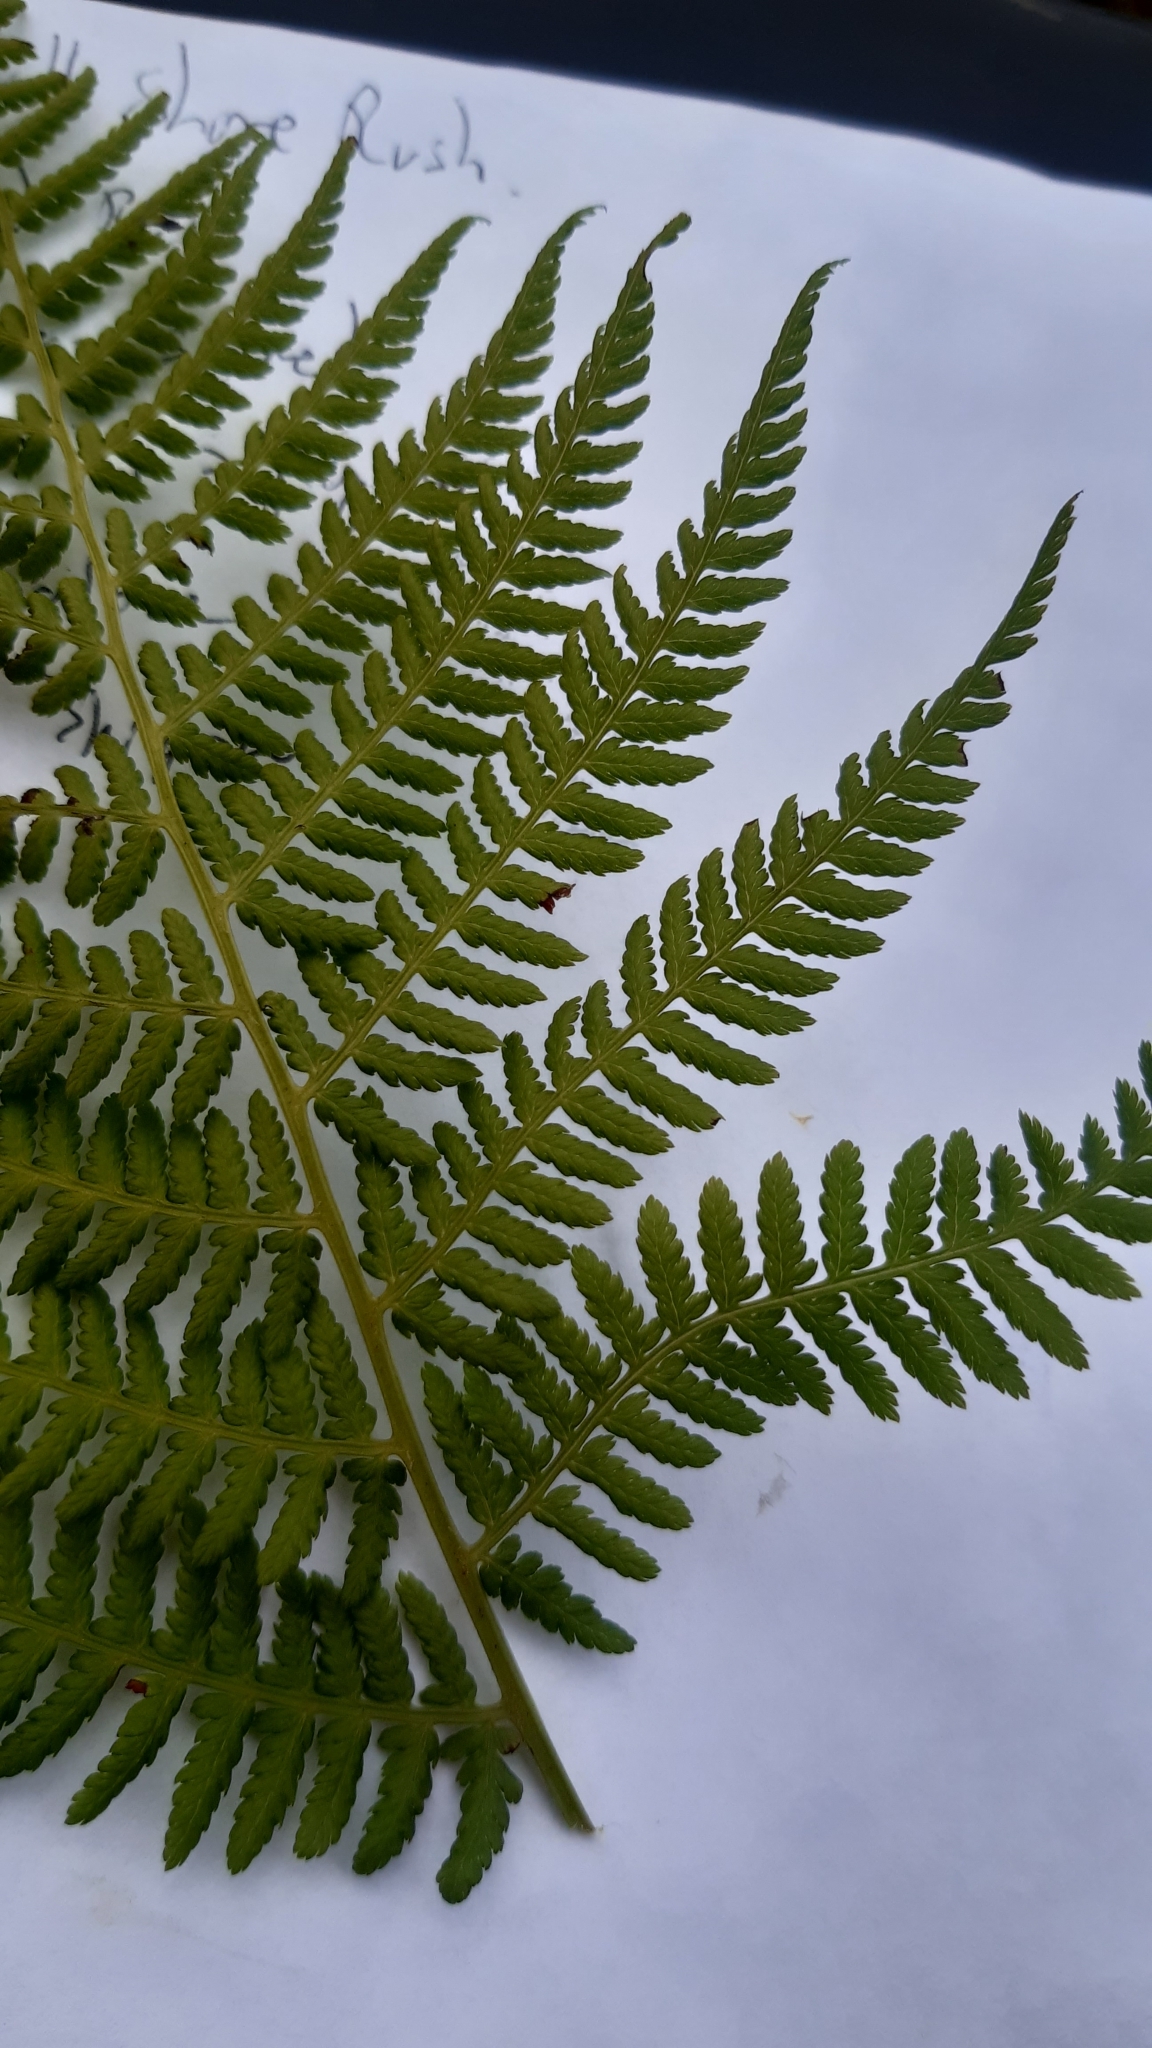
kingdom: Plantae
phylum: Tracheophyta
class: Polypodiopsida
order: Polypodiales
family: Athyriaceae
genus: Athyrium
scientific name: Athyrium filix-femina
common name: Lady fern
